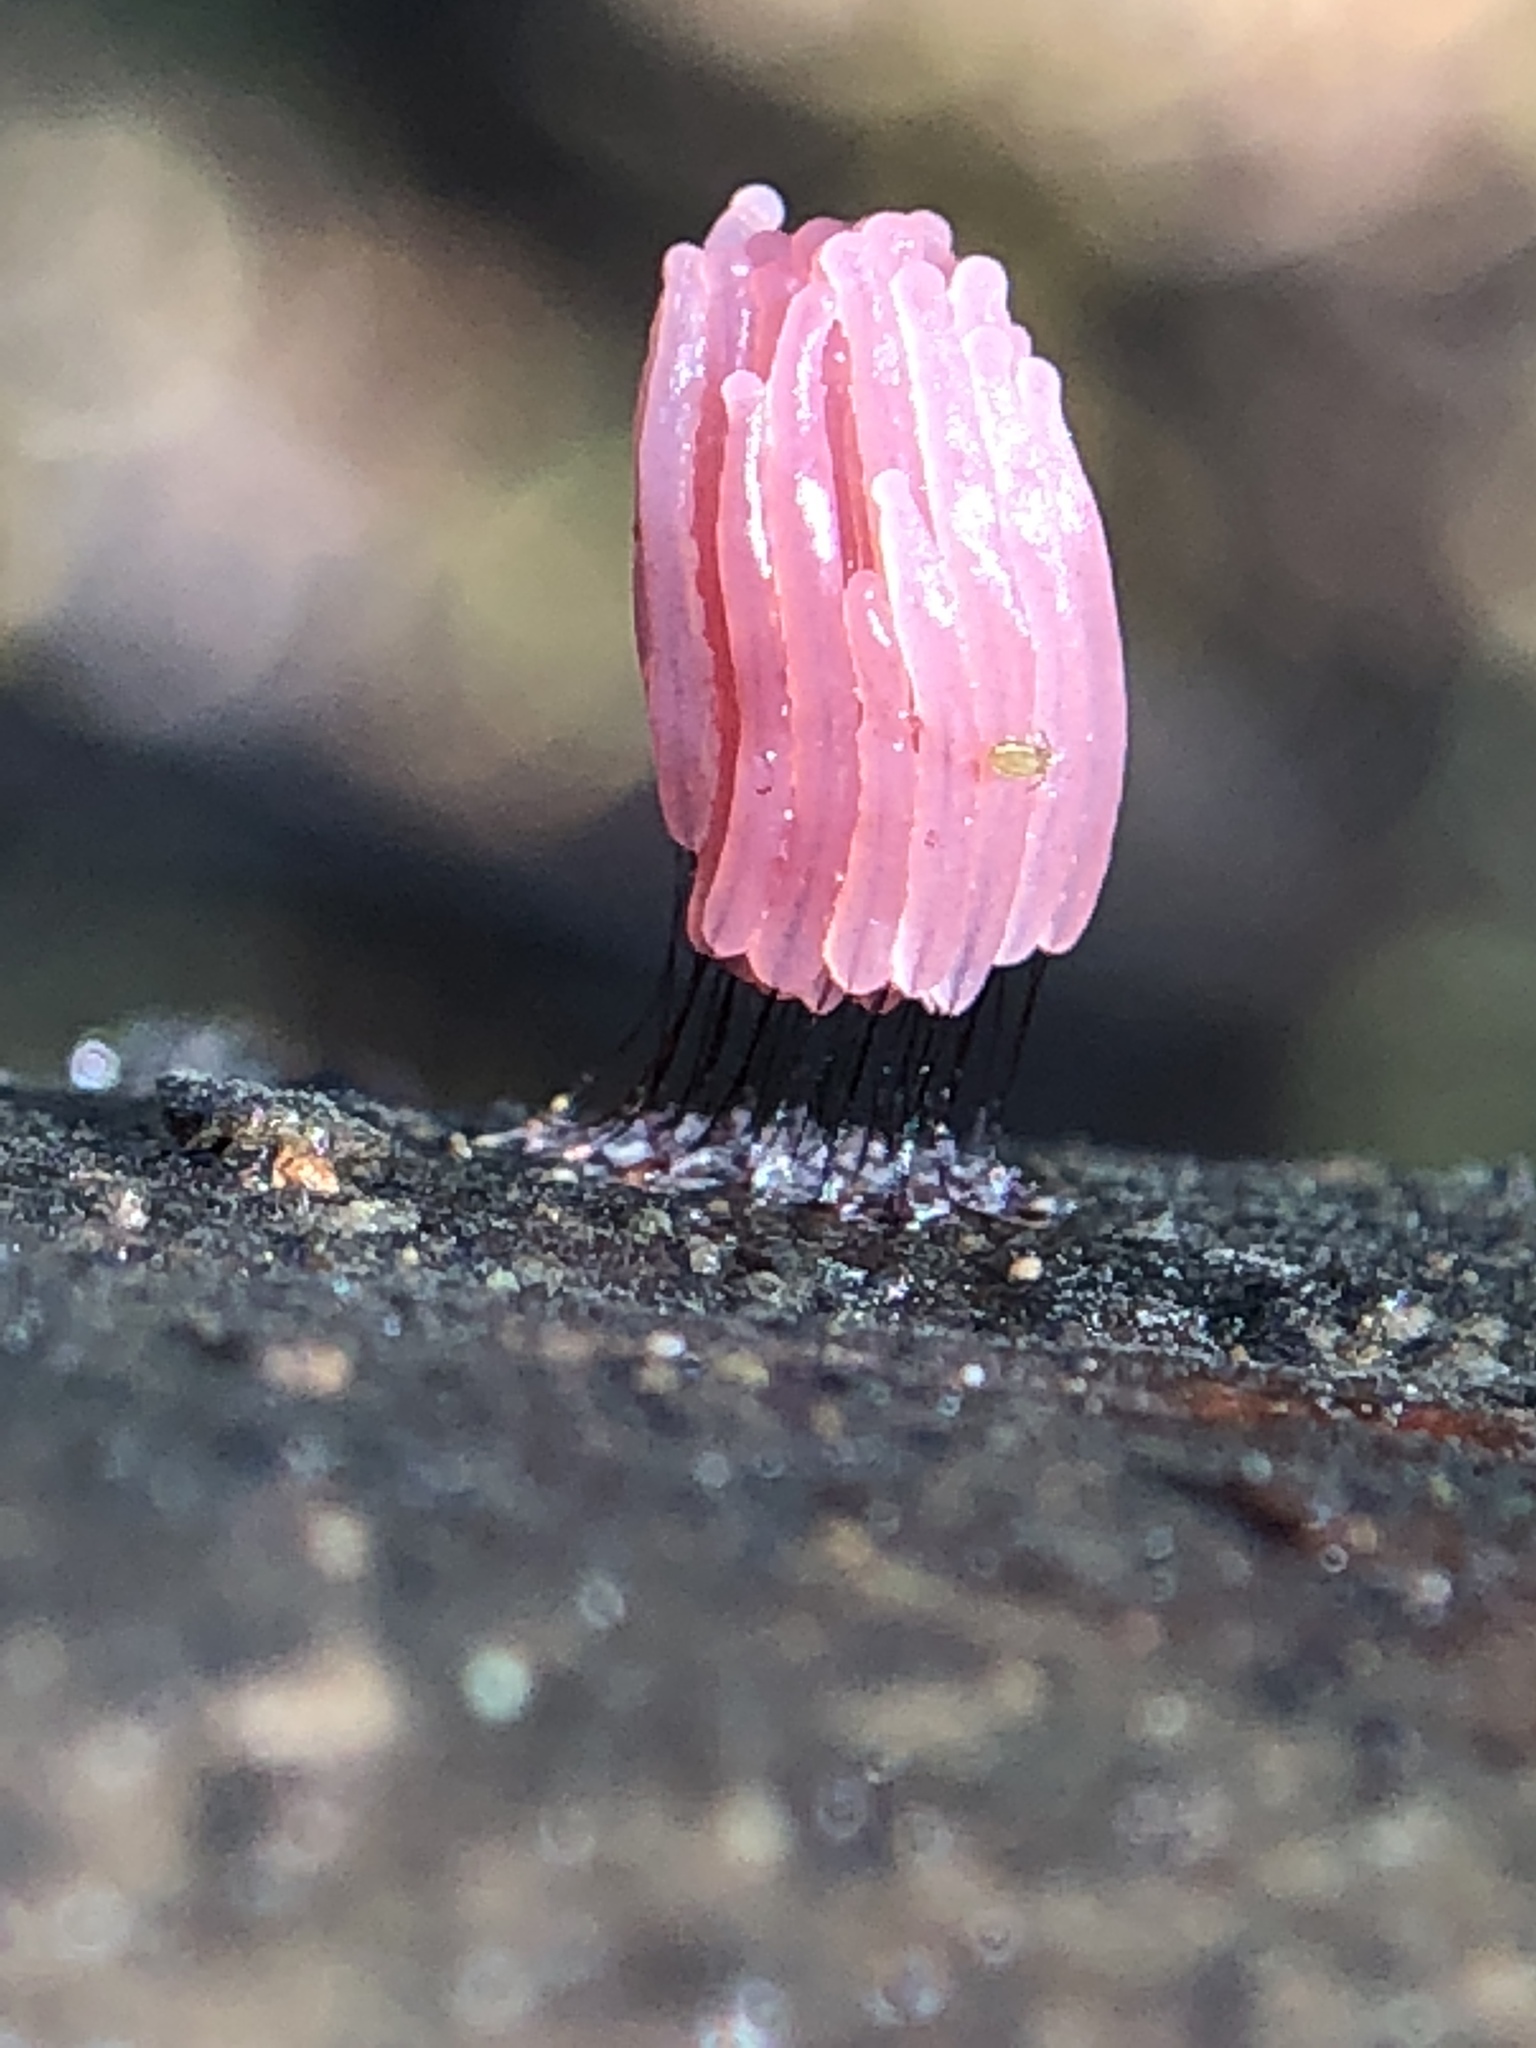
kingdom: Protozoa
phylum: Mycetozoa
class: Myxomycetes
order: Stemonitidales
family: Stemonitidaceae
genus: Stemonitis
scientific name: Stemonitis fusca
